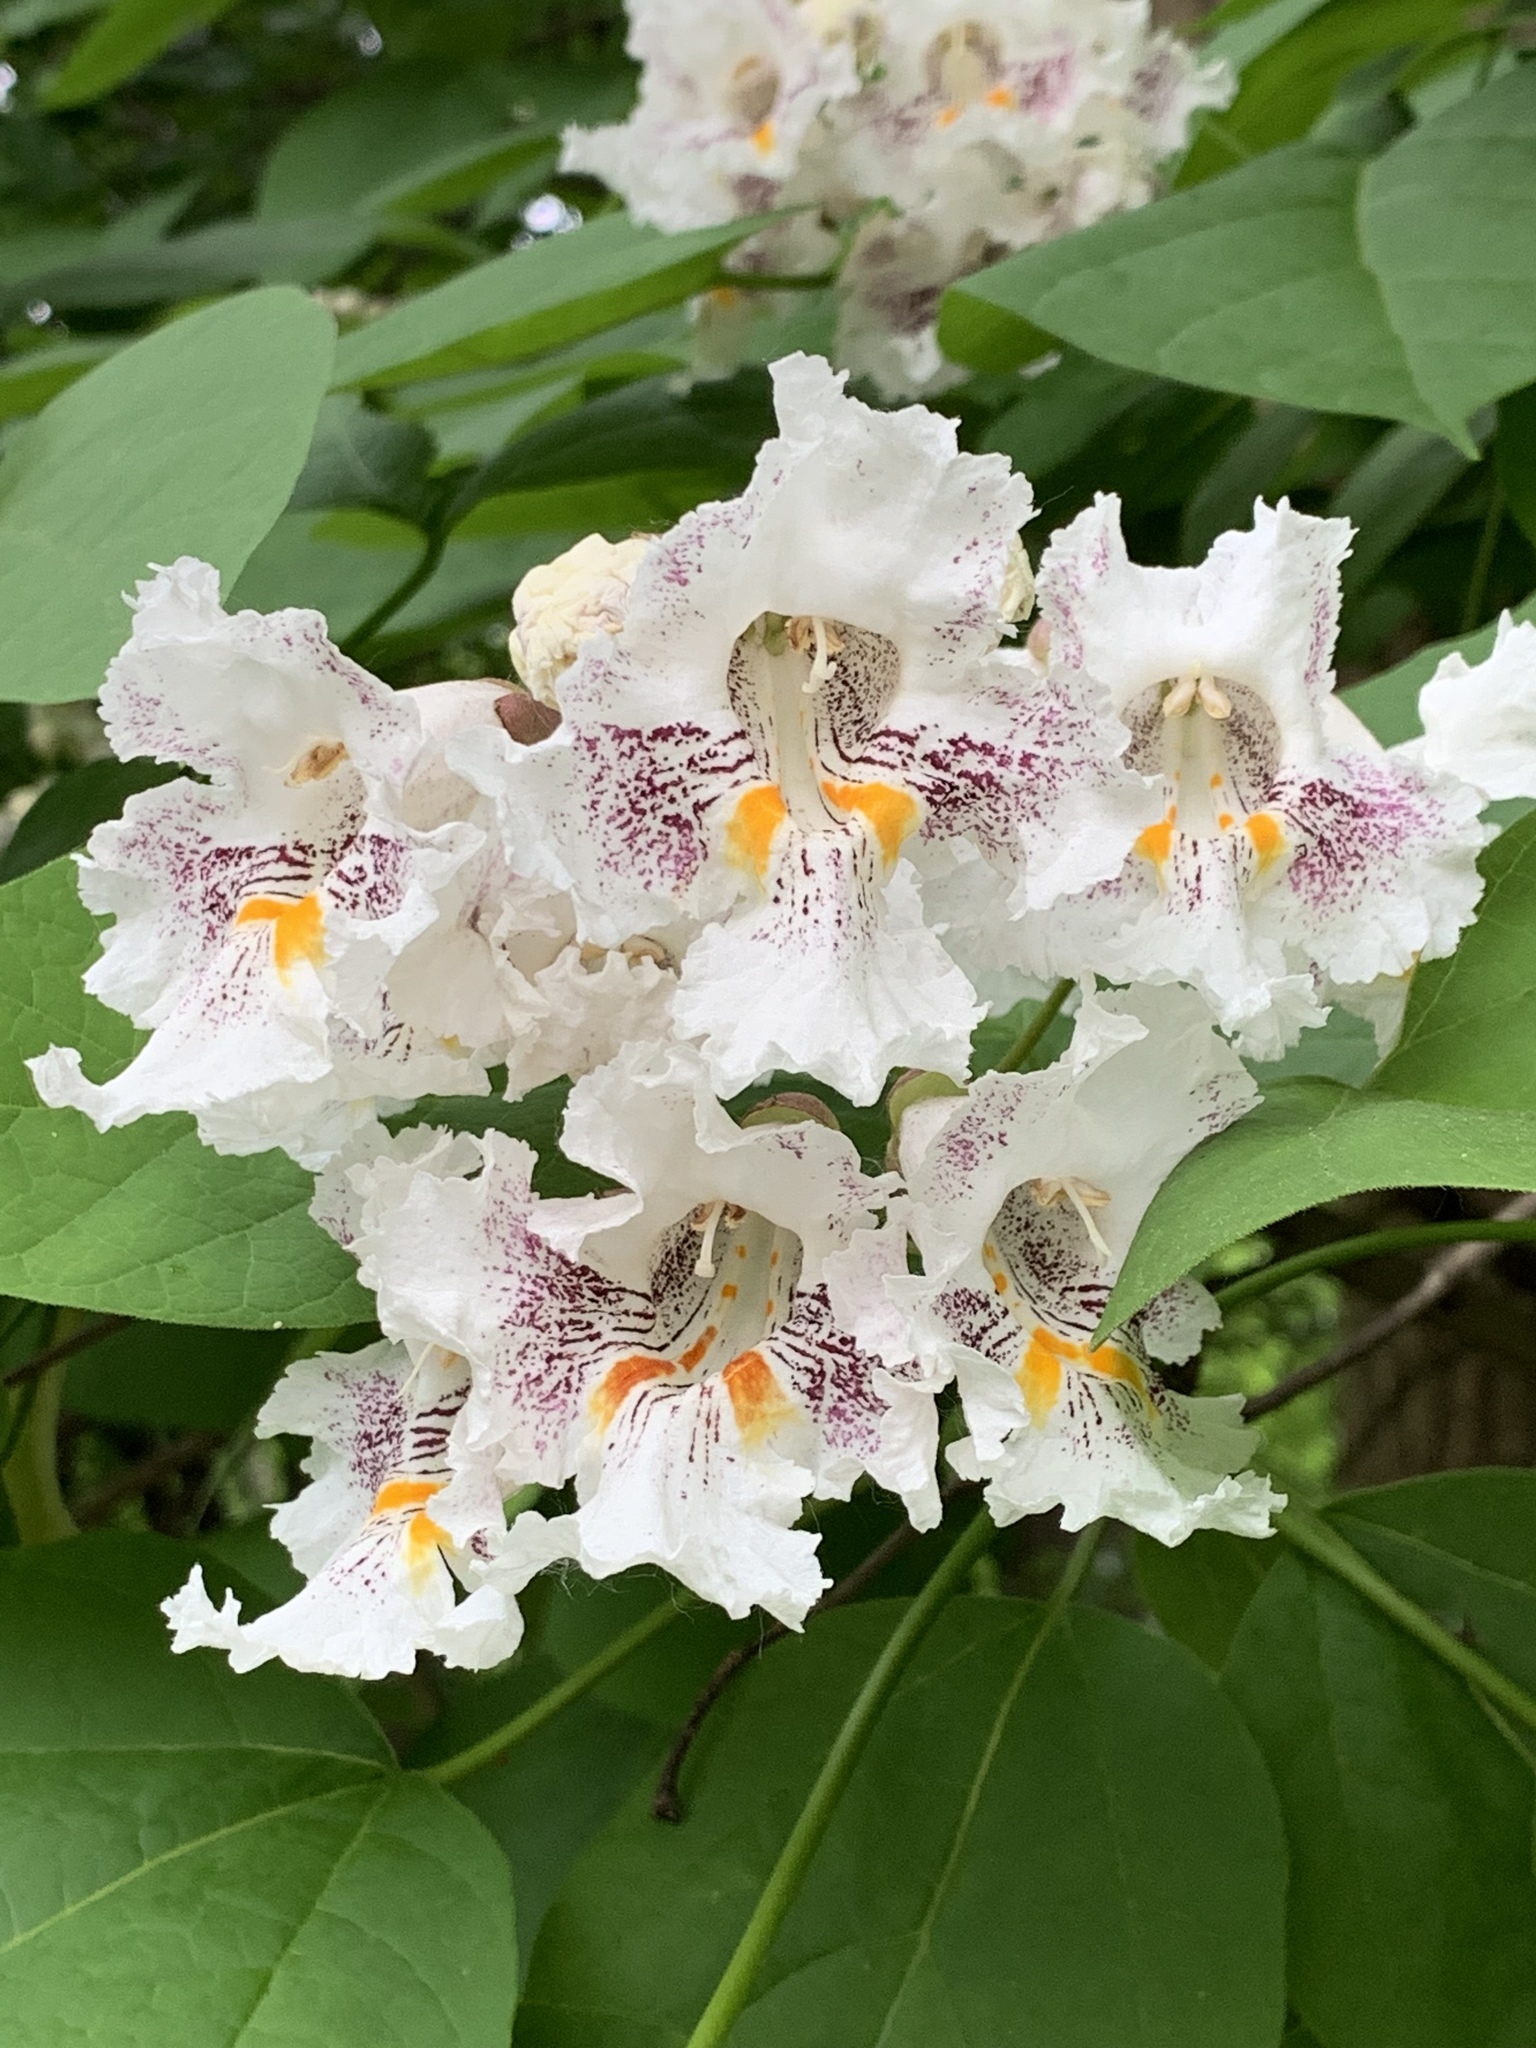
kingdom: Plantae
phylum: Tracheophyta
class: Magnoliopsida
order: Lamiales
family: Bignoniaceae
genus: Catalpa
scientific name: Catalpa speciosa
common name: Northern catalpa
